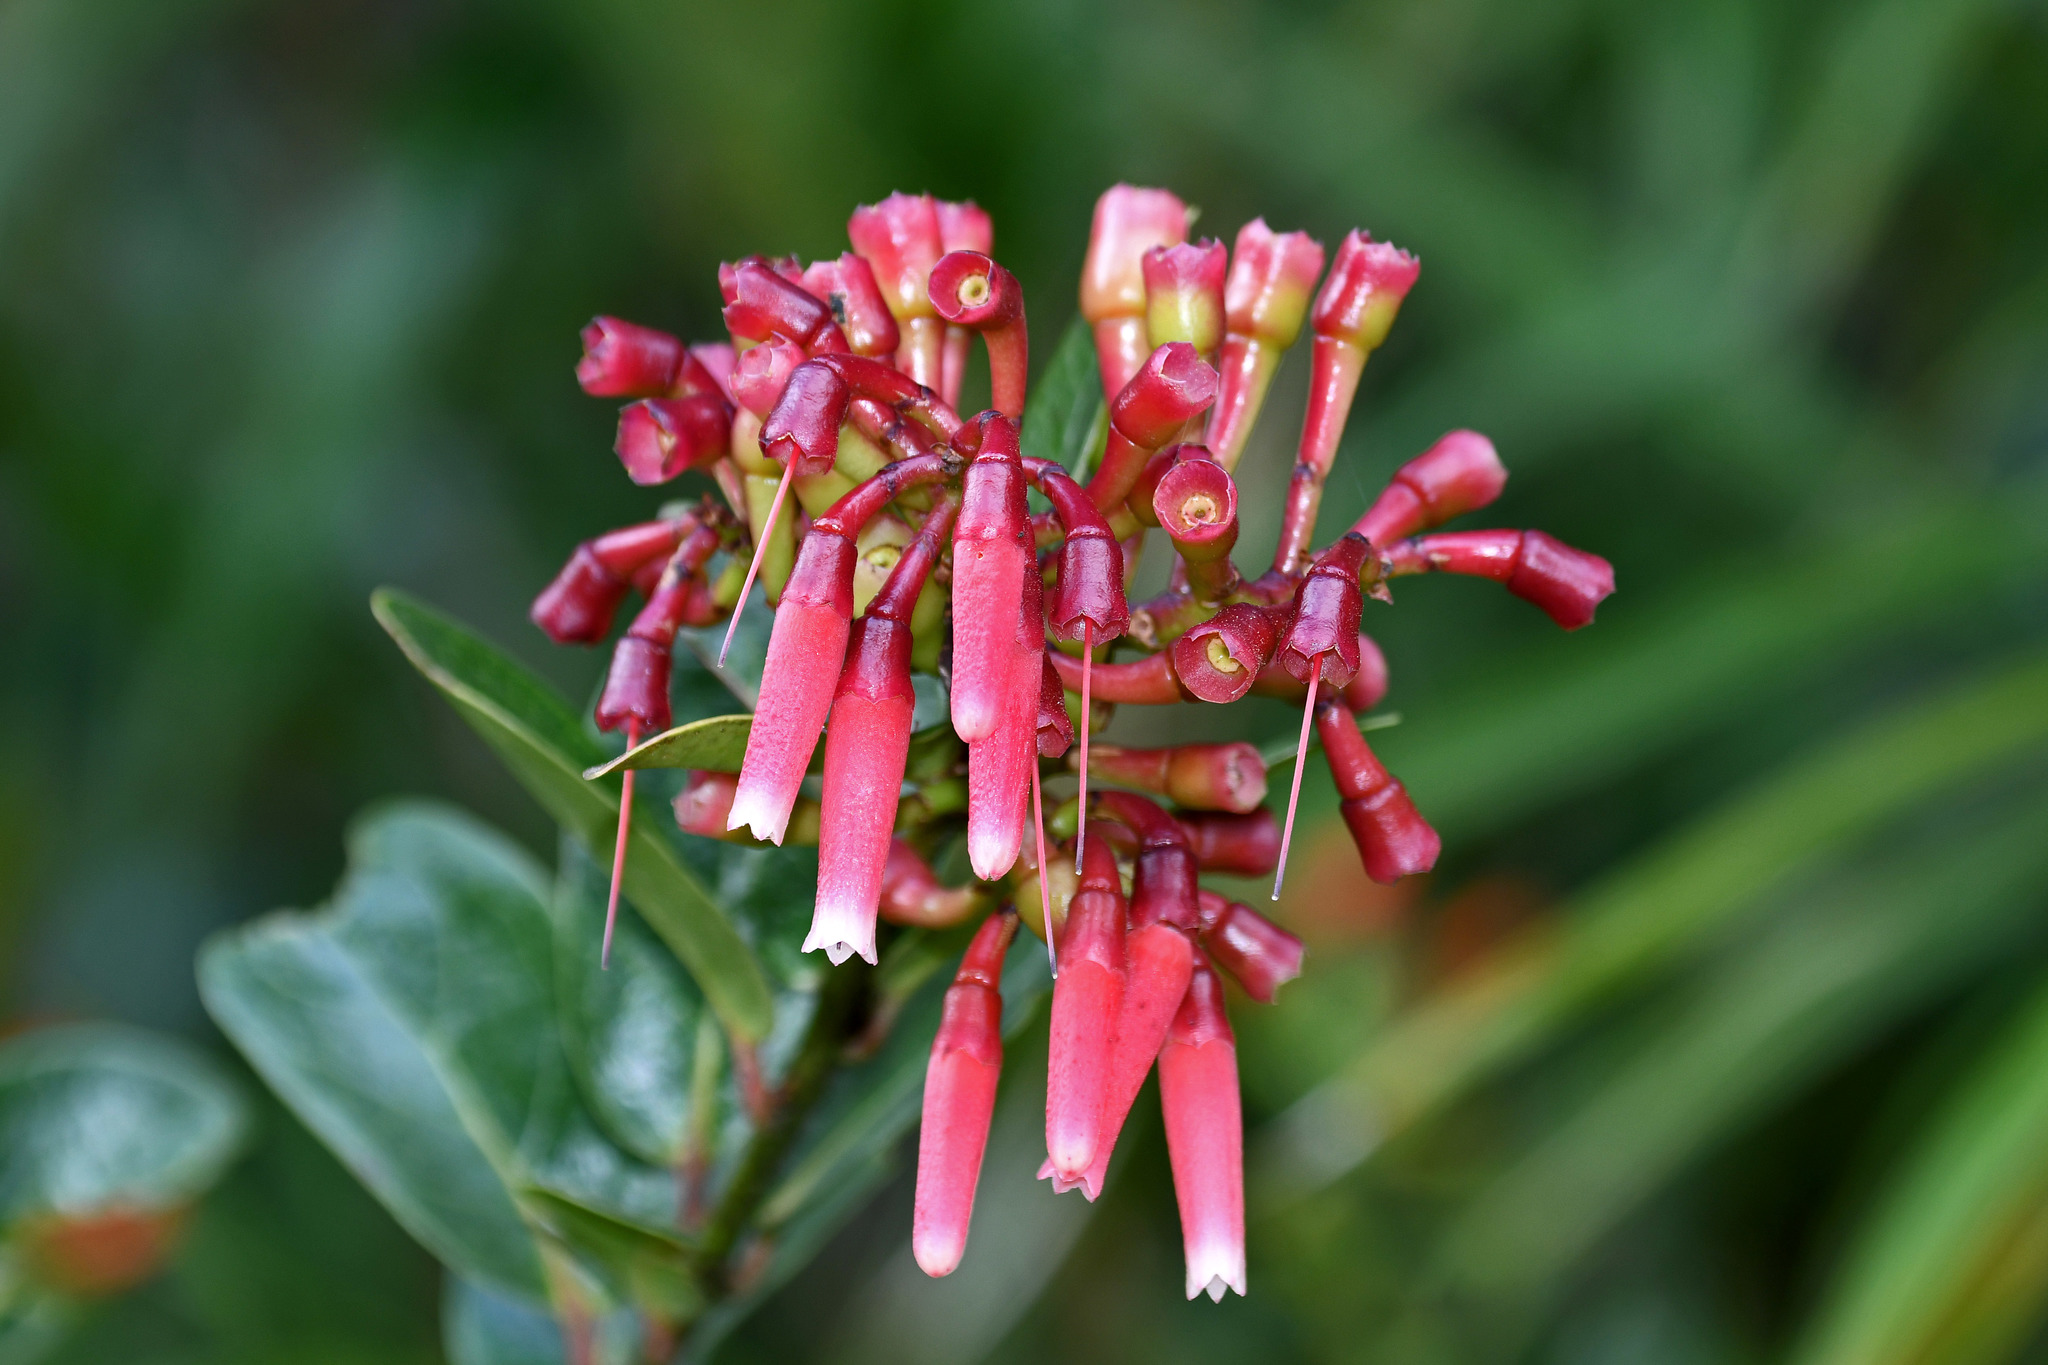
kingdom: Plantae
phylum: Tracheophyta
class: Magnoliopsida
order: Ericales
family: Ericaceae
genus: Macleania
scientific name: Macleania rupestris
